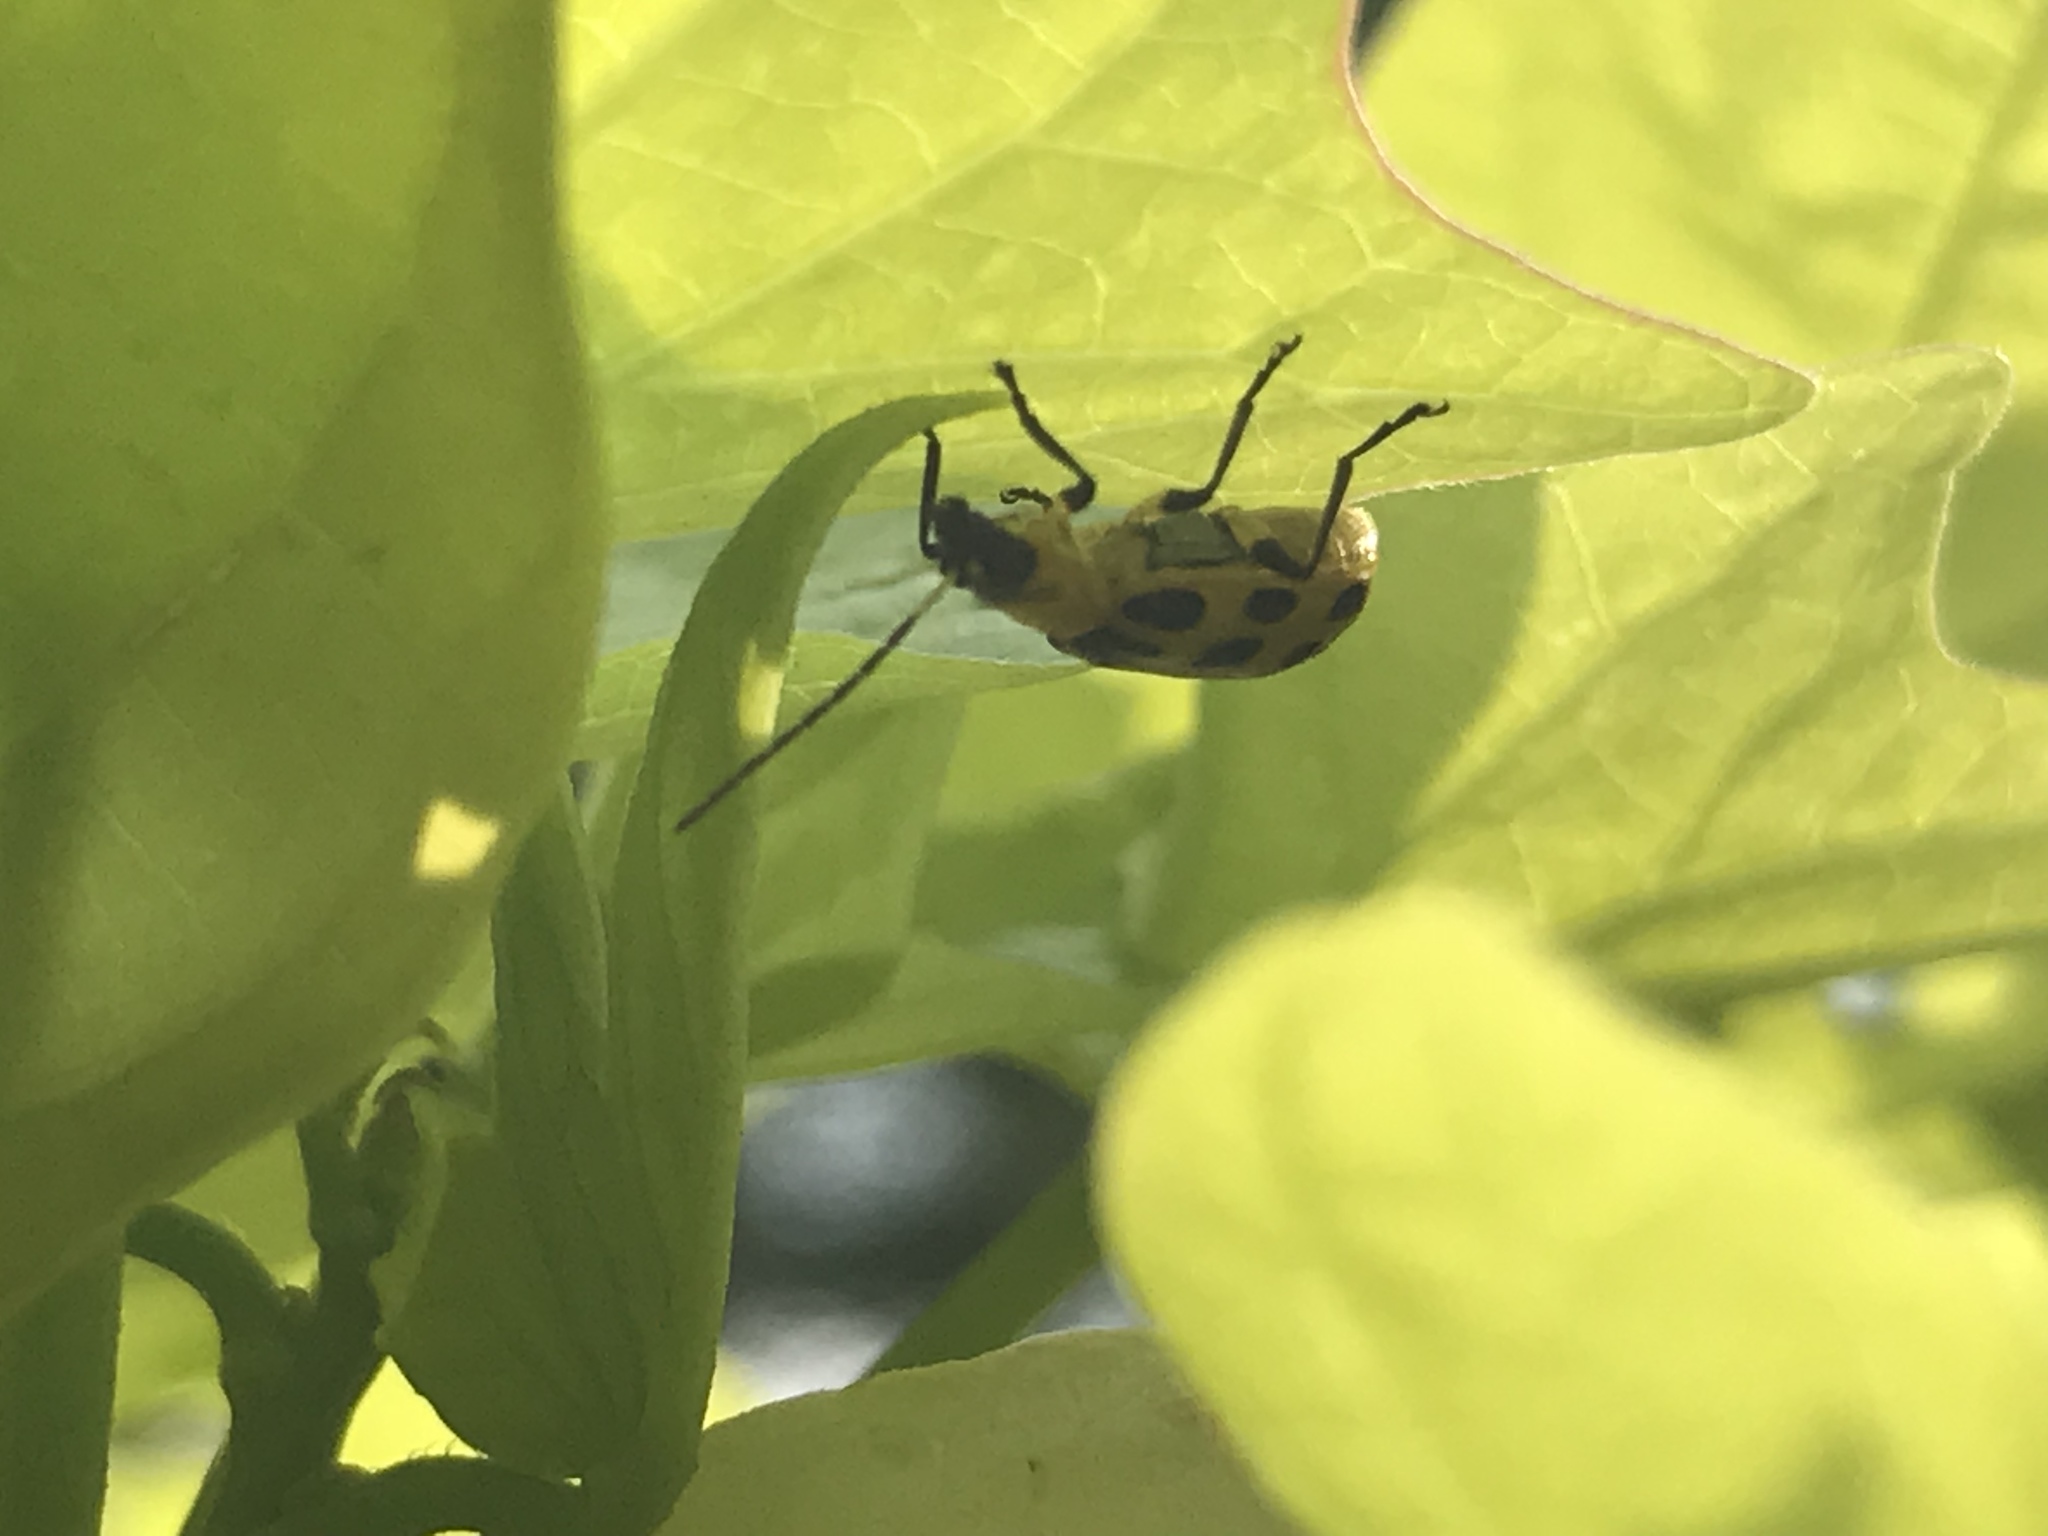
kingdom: Animalia
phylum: Arthropoda
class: Insecta
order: Coleoptera
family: Chrysomelidae
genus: Diabrotica
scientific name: Diabrotica undecimpunctata
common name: Spotted cucumber beetle
